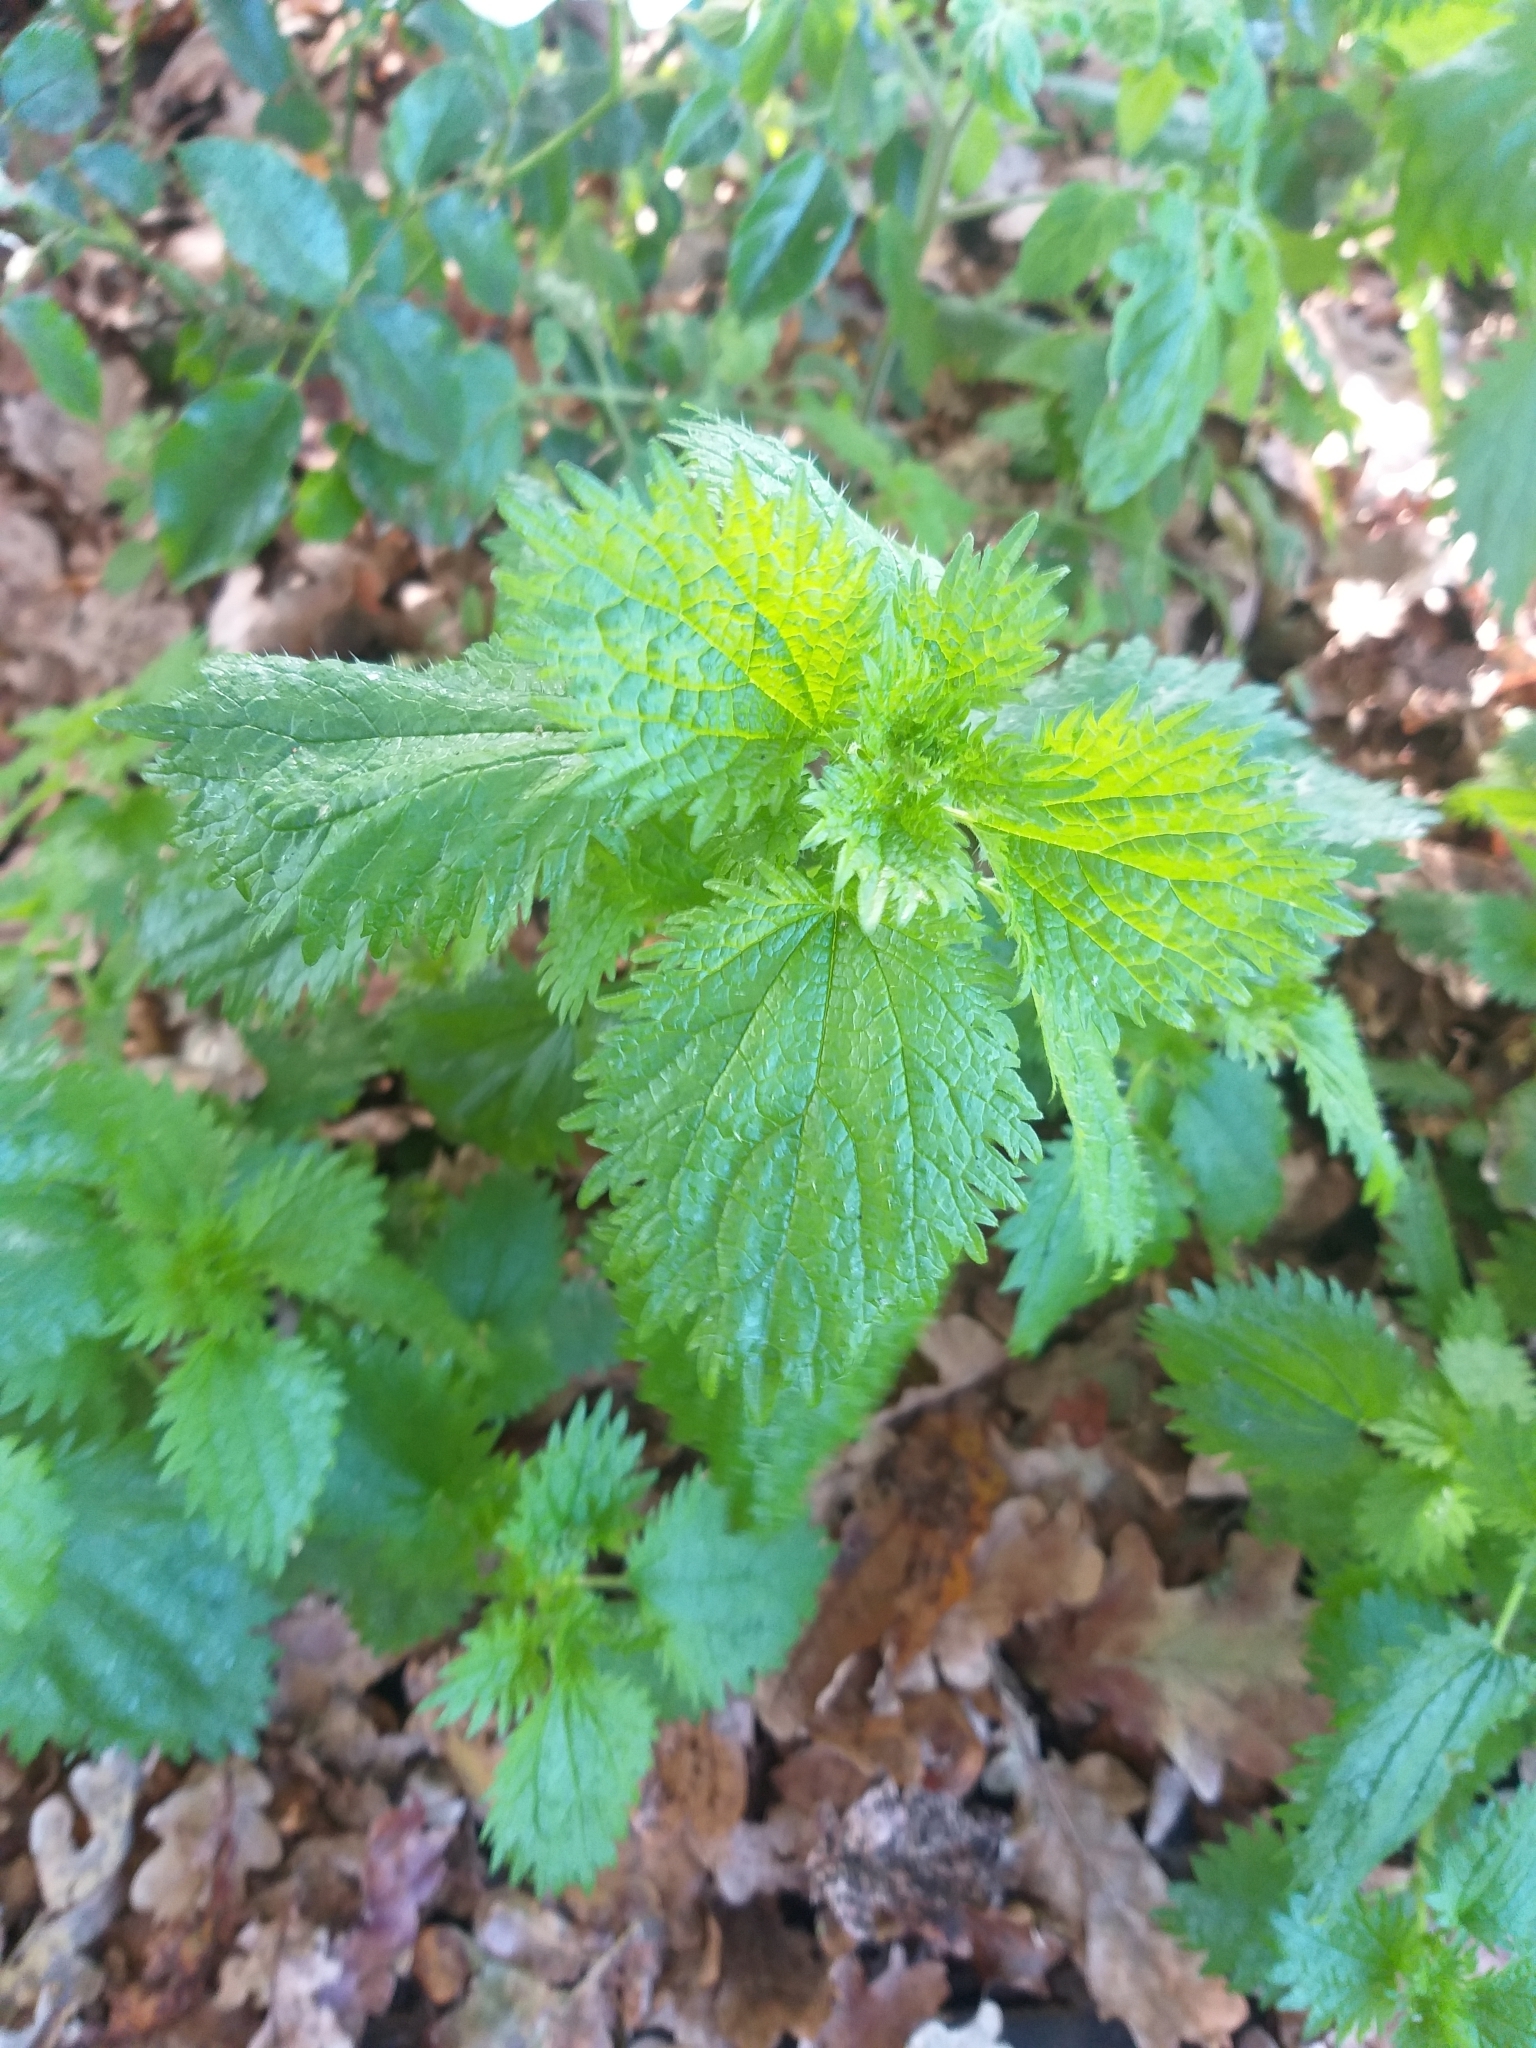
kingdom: Plantae
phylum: Tracheophyta
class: Magnoliopsida
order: Rosales
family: Urticaceae
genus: Urtica
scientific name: Urtica urens
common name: Dwarf nettle
